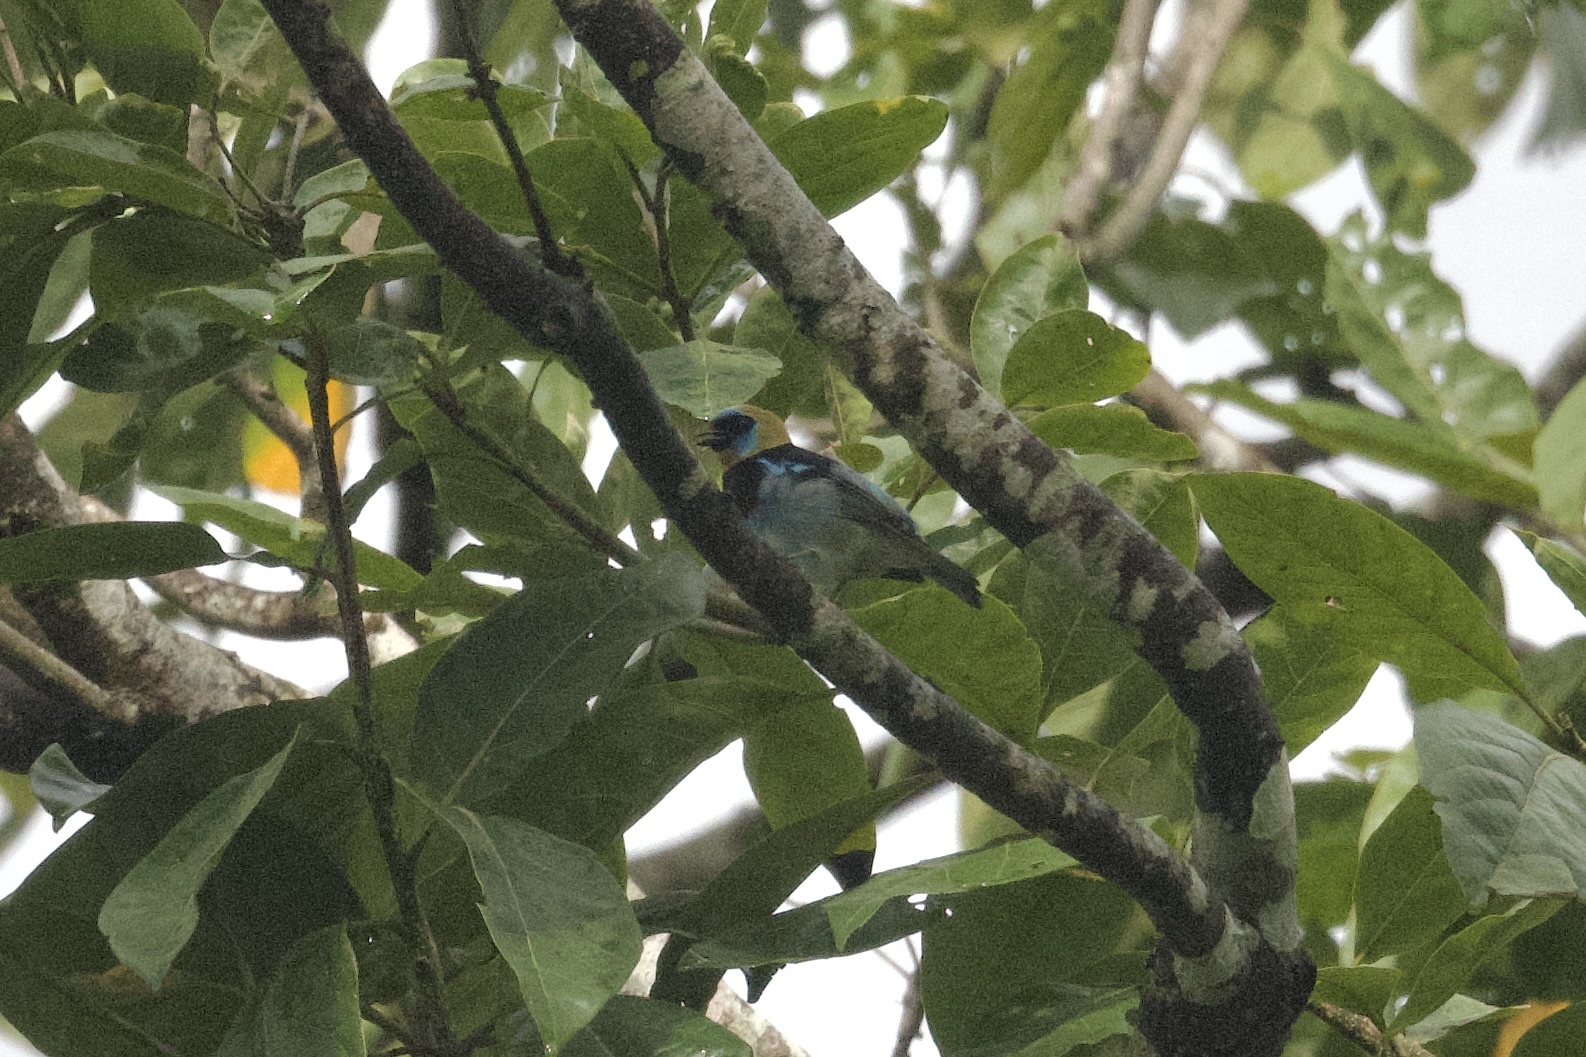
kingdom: Animalia
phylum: Chordata
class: Aves
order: Passeriformes
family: Thraupidae
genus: Stilpnia
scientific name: Stilpnia larvata
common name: Golden-hooded tanager
